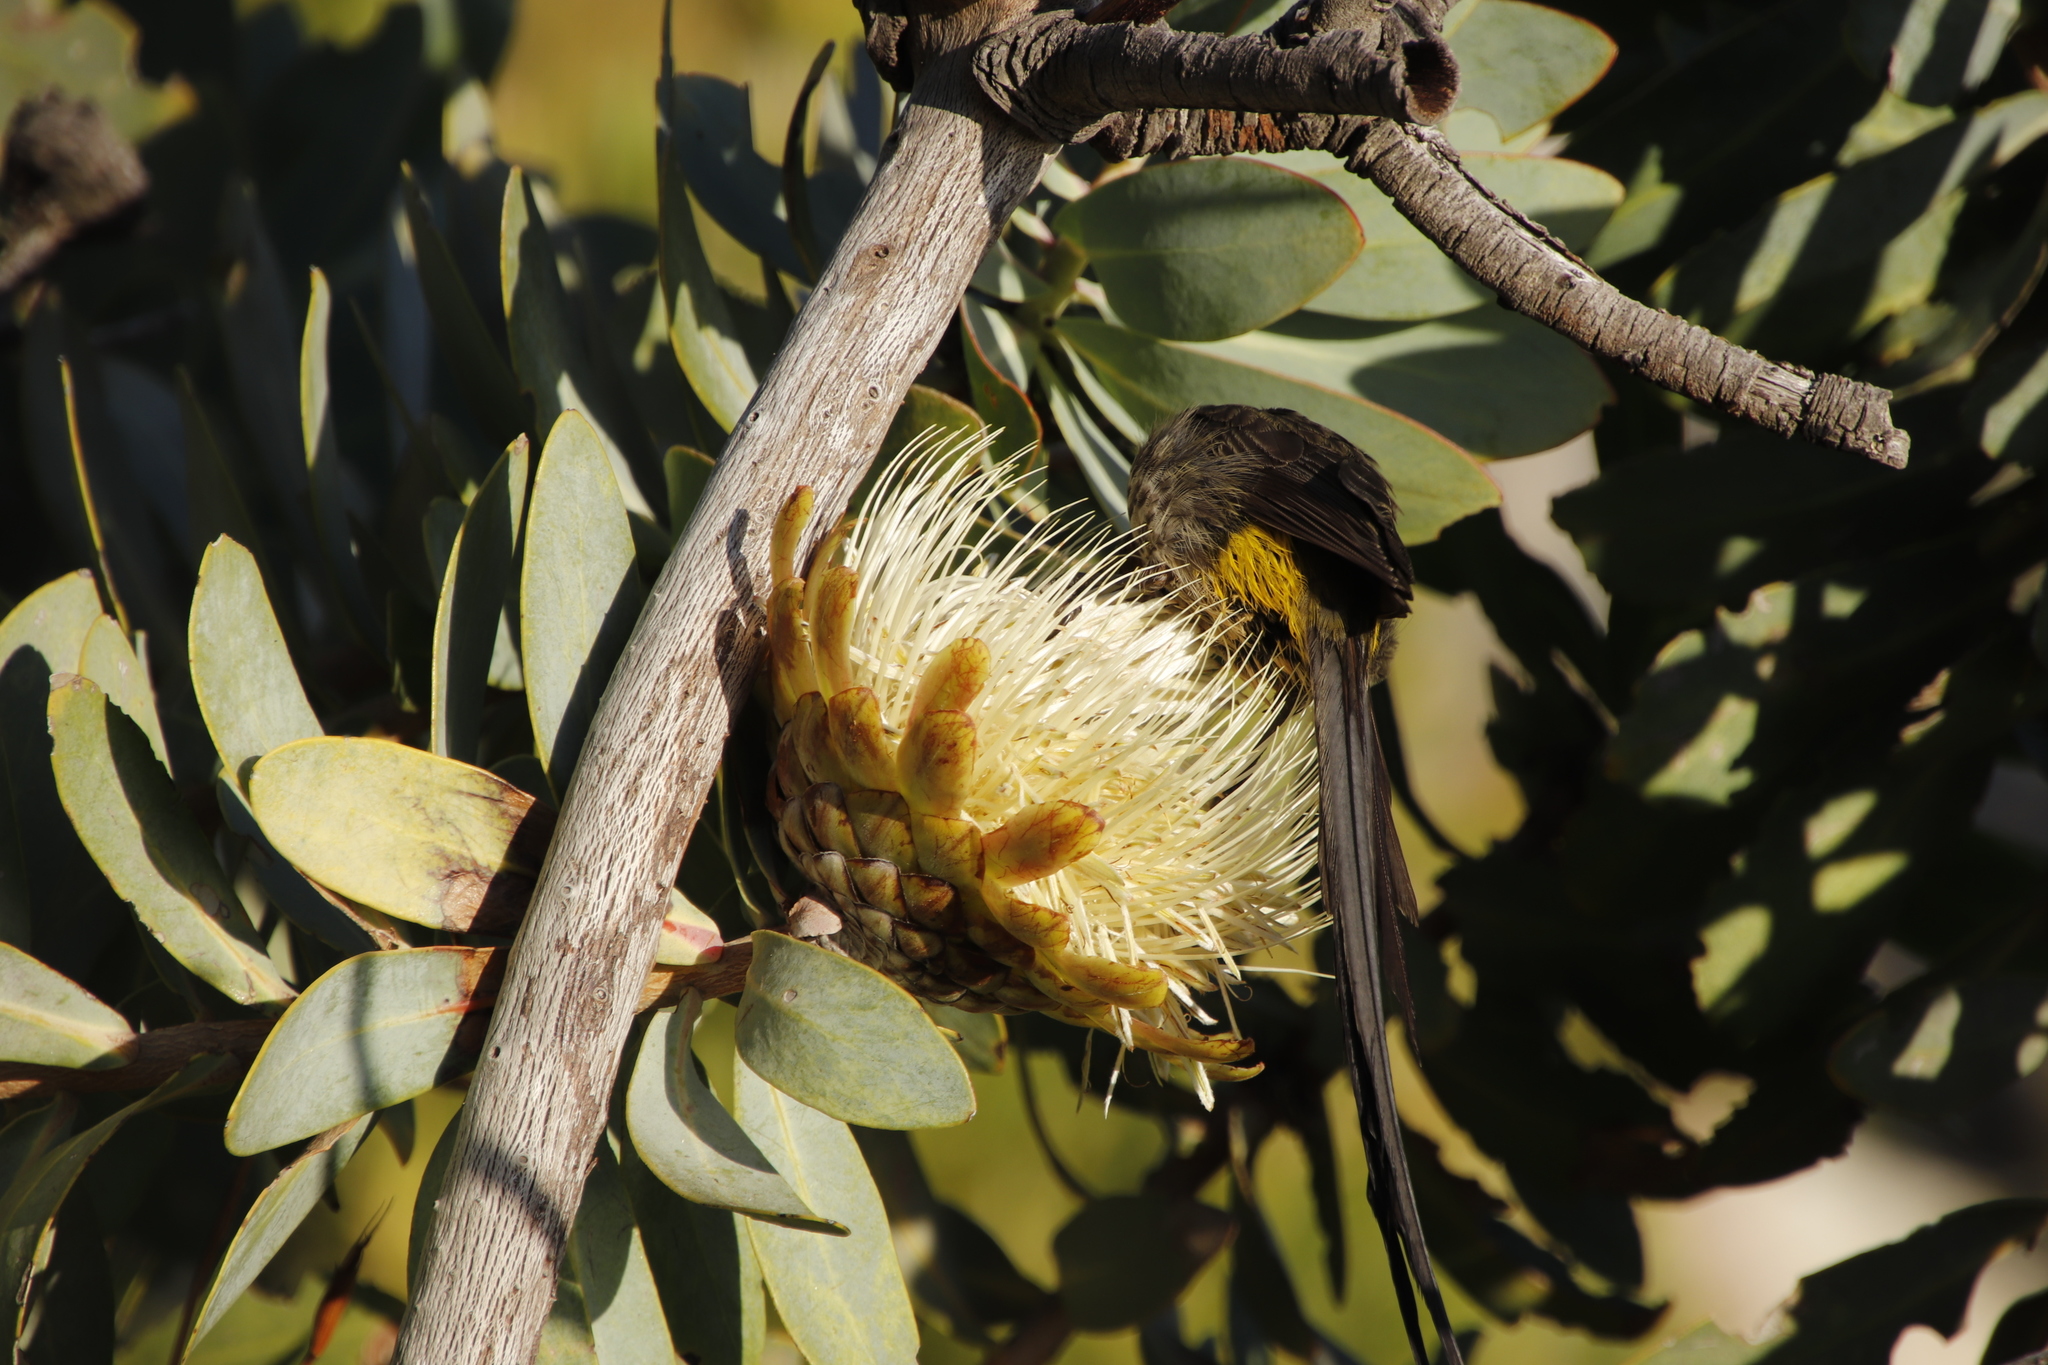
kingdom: Animalia
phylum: Chordata
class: Aves
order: Passeriformes
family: Promeropidae
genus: Promerops
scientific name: Promerops cafer
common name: Cape sugarbird
